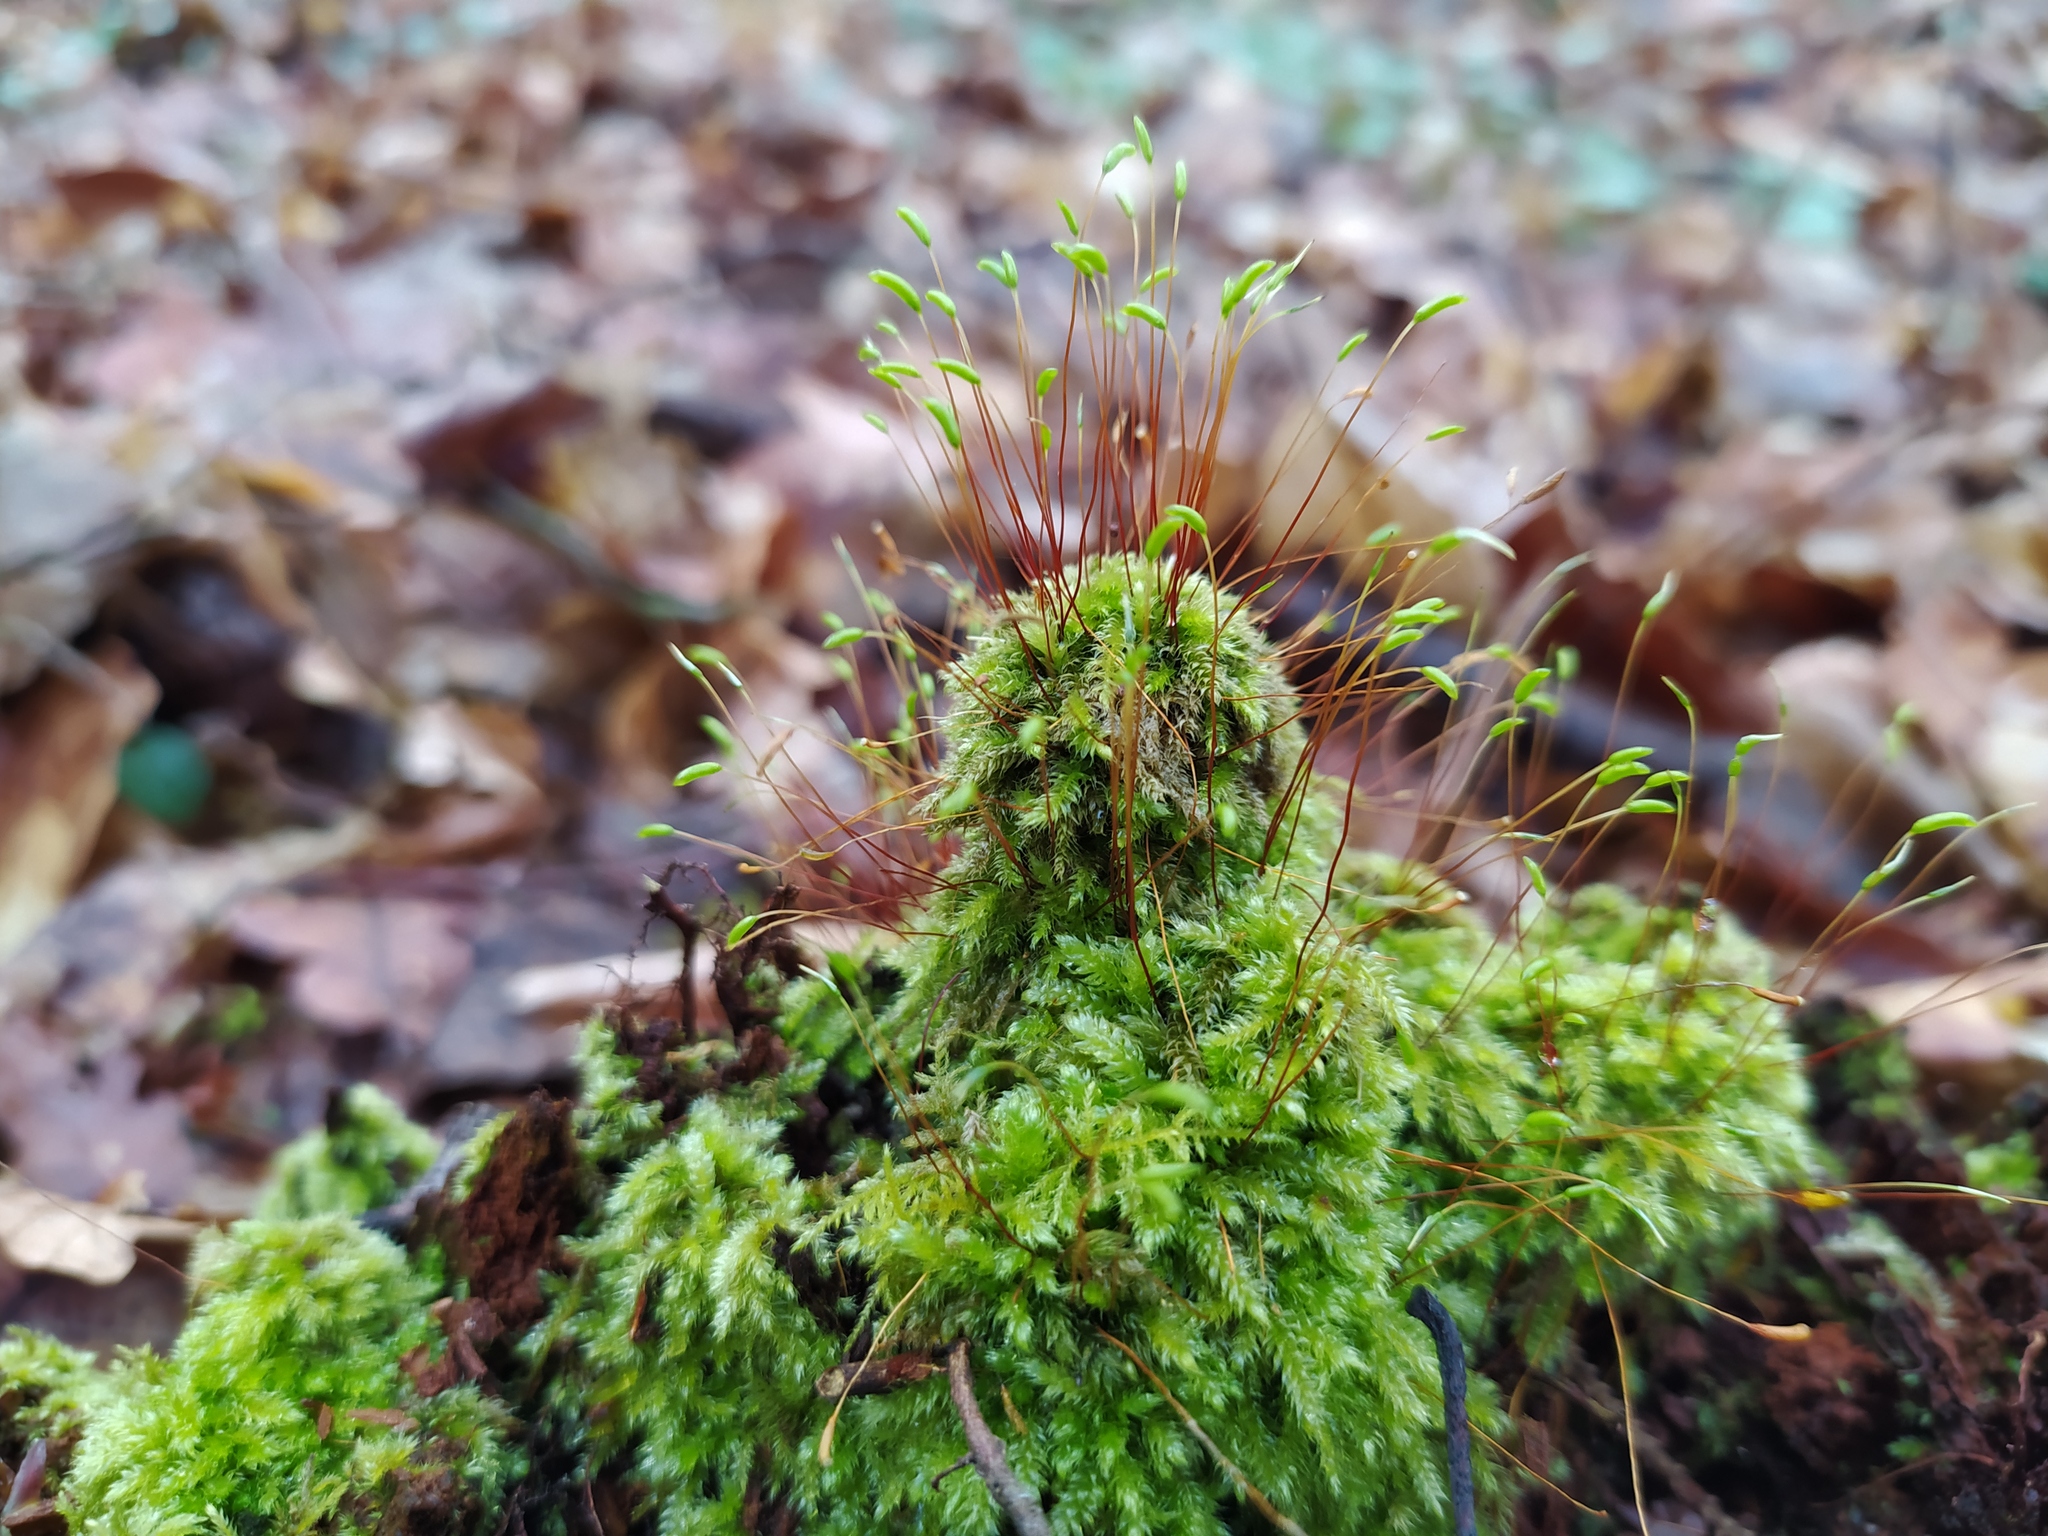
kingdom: Plantae
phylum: Bryophyta
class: Bryopsida
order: Hypnales
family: Plagiotheciaceae
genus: Herzogiella
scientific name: Herzogiella seligeri
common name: Silesian feather-moss
